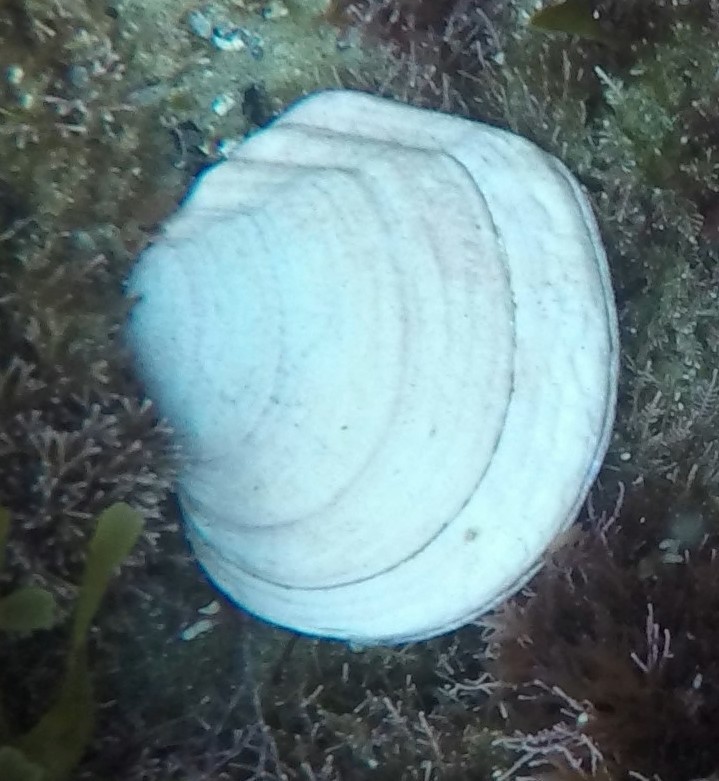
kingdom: Animalia
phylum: Mollusca
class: Bivalvia
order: Cardiida
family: Semelidae
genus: Semele
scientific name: Semele decisa
